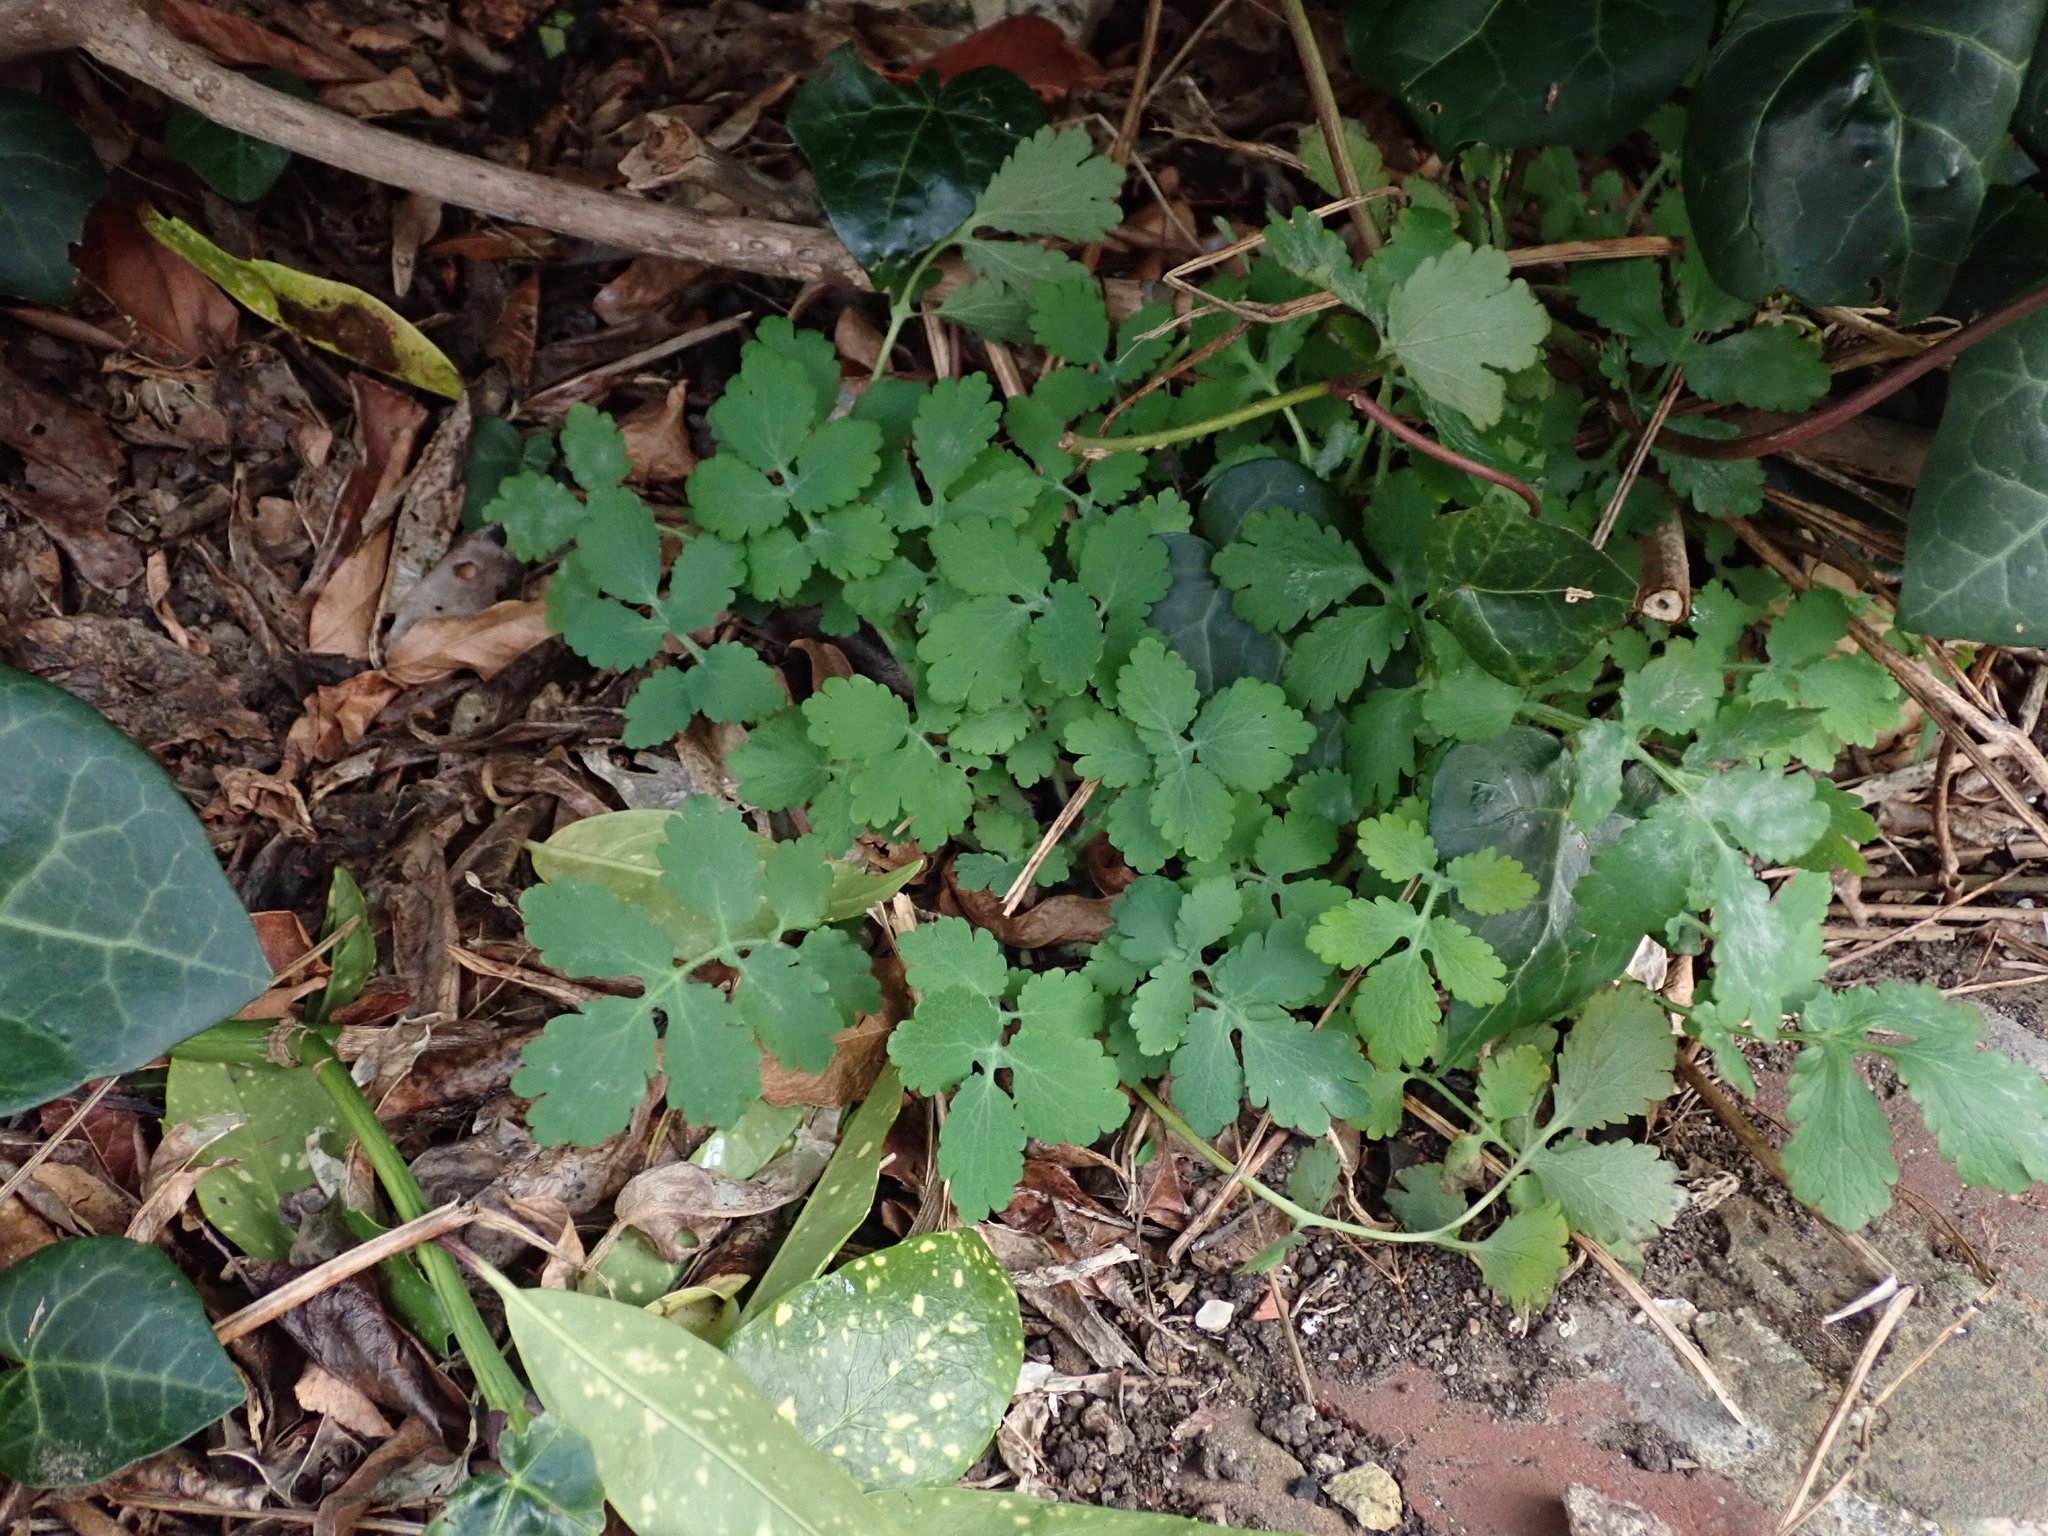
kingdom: Plantae
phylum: Tracheophyta
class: Magnoliopsida
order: Ranunculales
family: Papaveraceae
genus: Chelidonium
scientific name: Chelidonium majus
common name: Greater celandine
